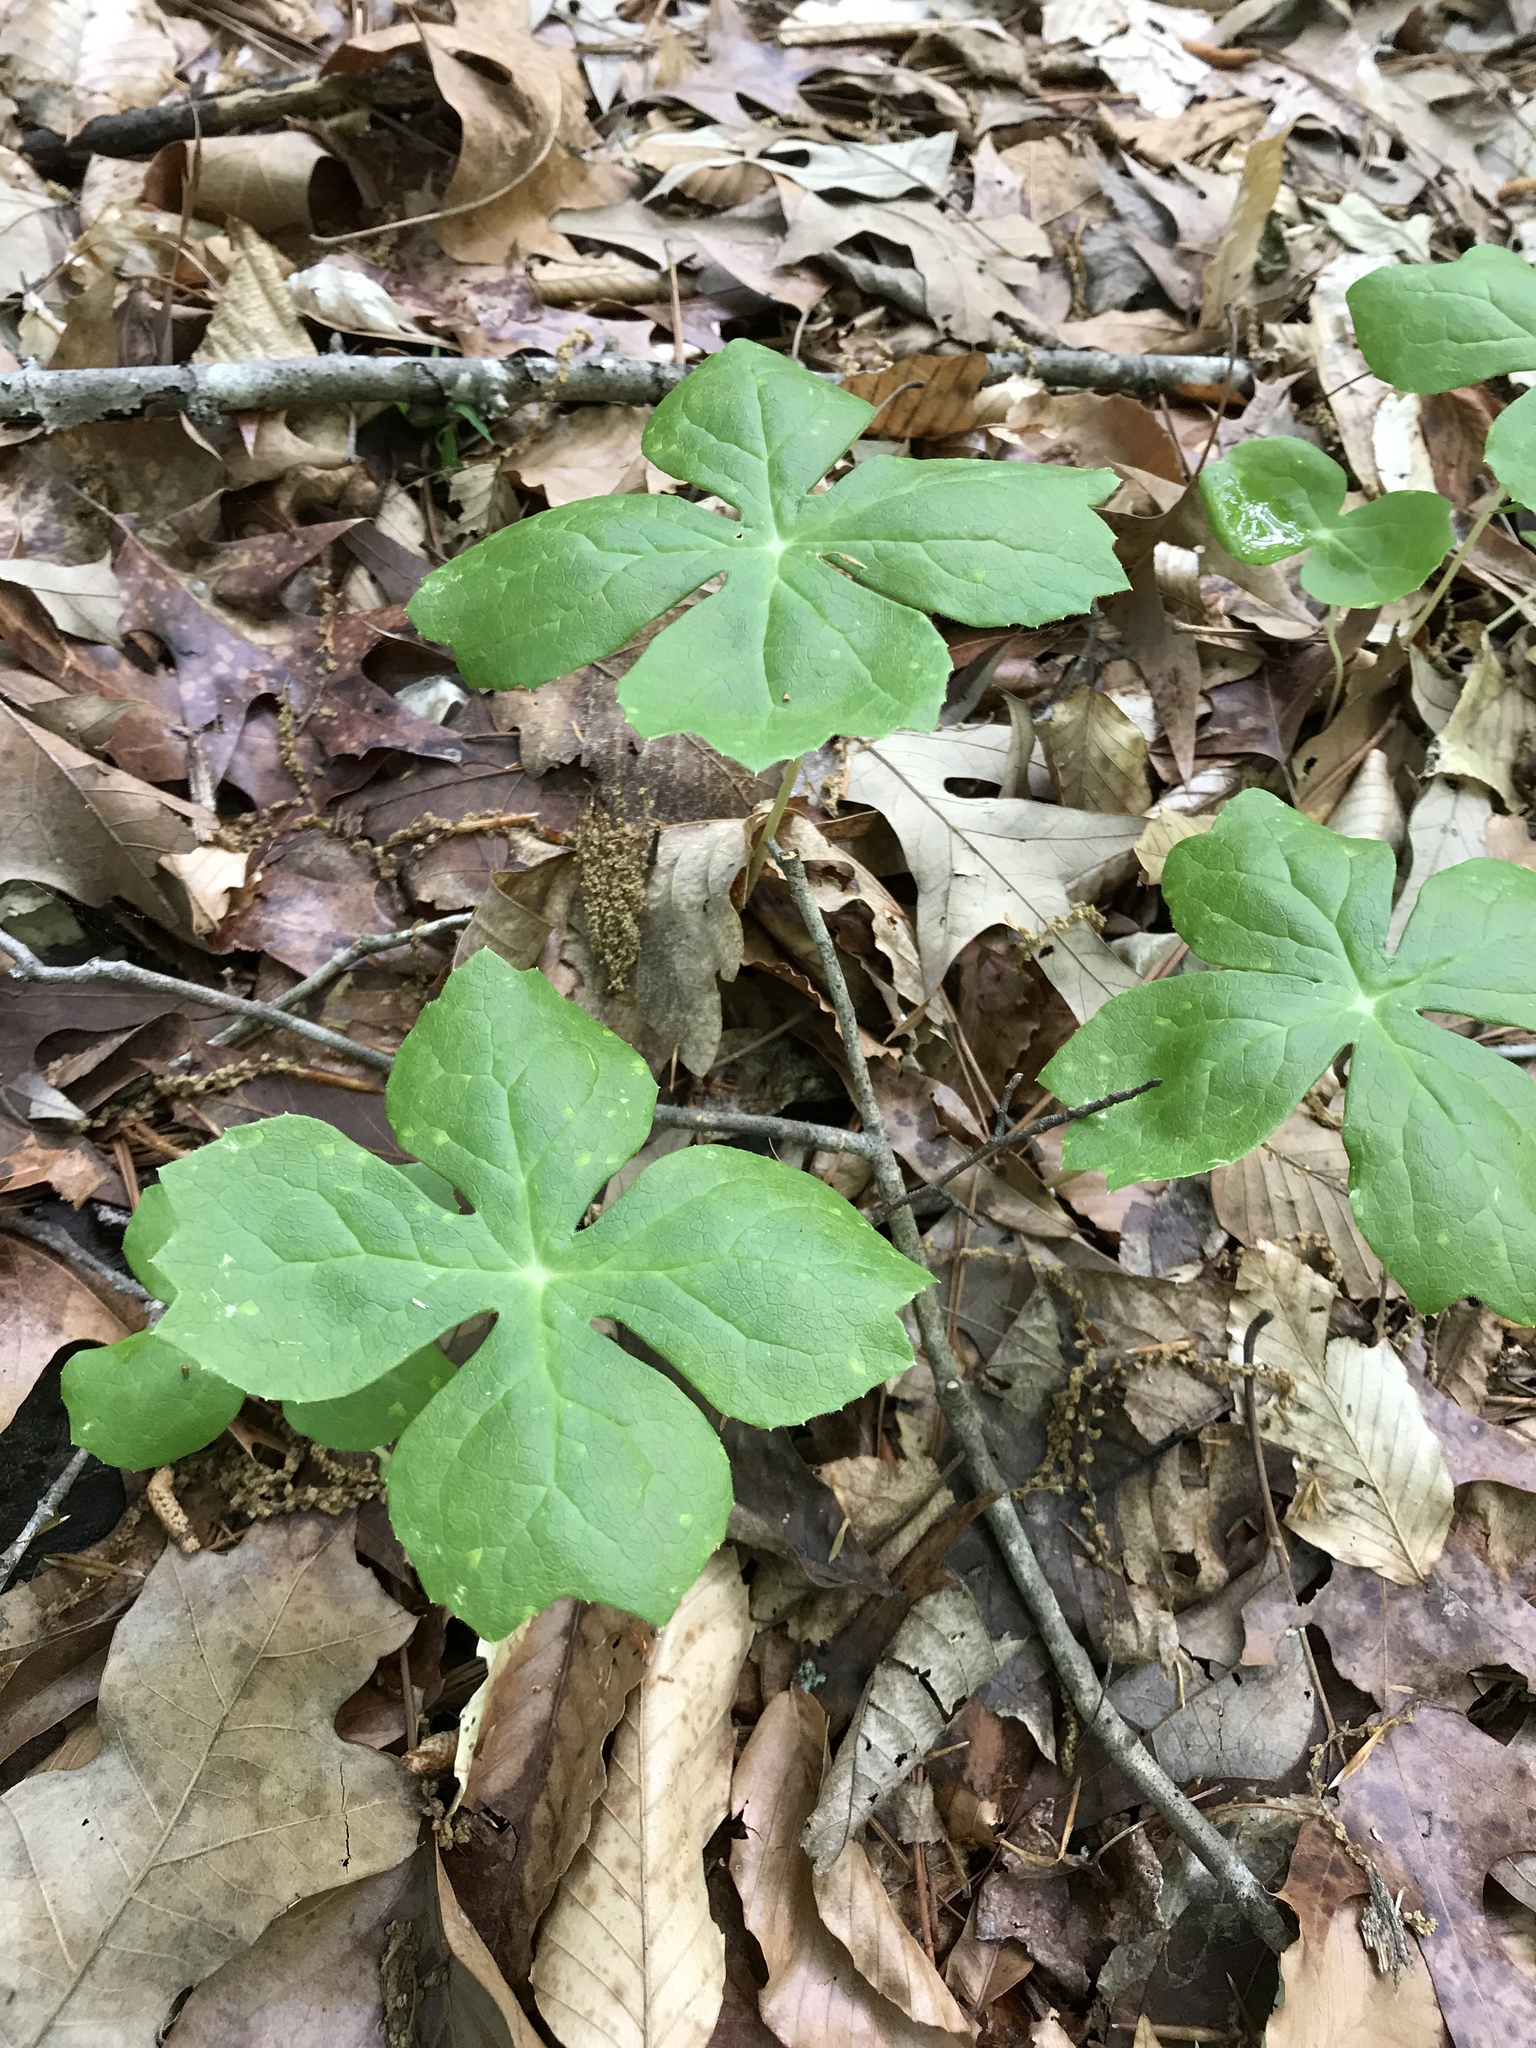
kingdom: Plantae
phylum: Tracheophyta
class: Magnoliopsida
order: Ranunculales
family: Berberidaceae
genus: Podophyllum
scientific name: Podophyllum peltatum
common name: Wild mandrake
